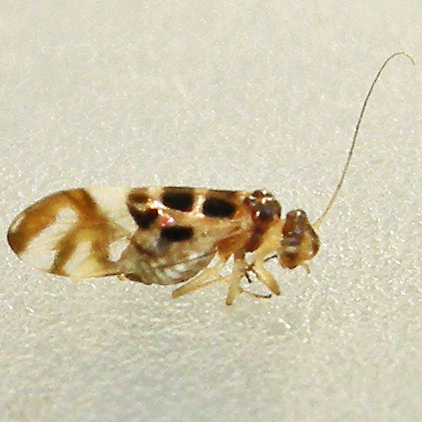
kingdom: Animalia
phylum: Arthropoda
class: Insecta
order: Psocodea
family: Stenopsocidae
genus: Graphopsocus
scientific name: Graphopsocus cruciatus
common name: Lizard bark louse
